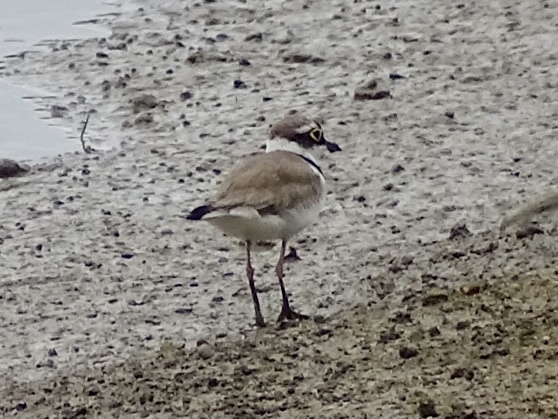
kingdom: Animalia
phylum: Chordata
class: Aves
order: Charadriiformes
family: Charadriidae
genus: Charadrius
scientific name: Charadrius dubius
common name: Little ringed plover
